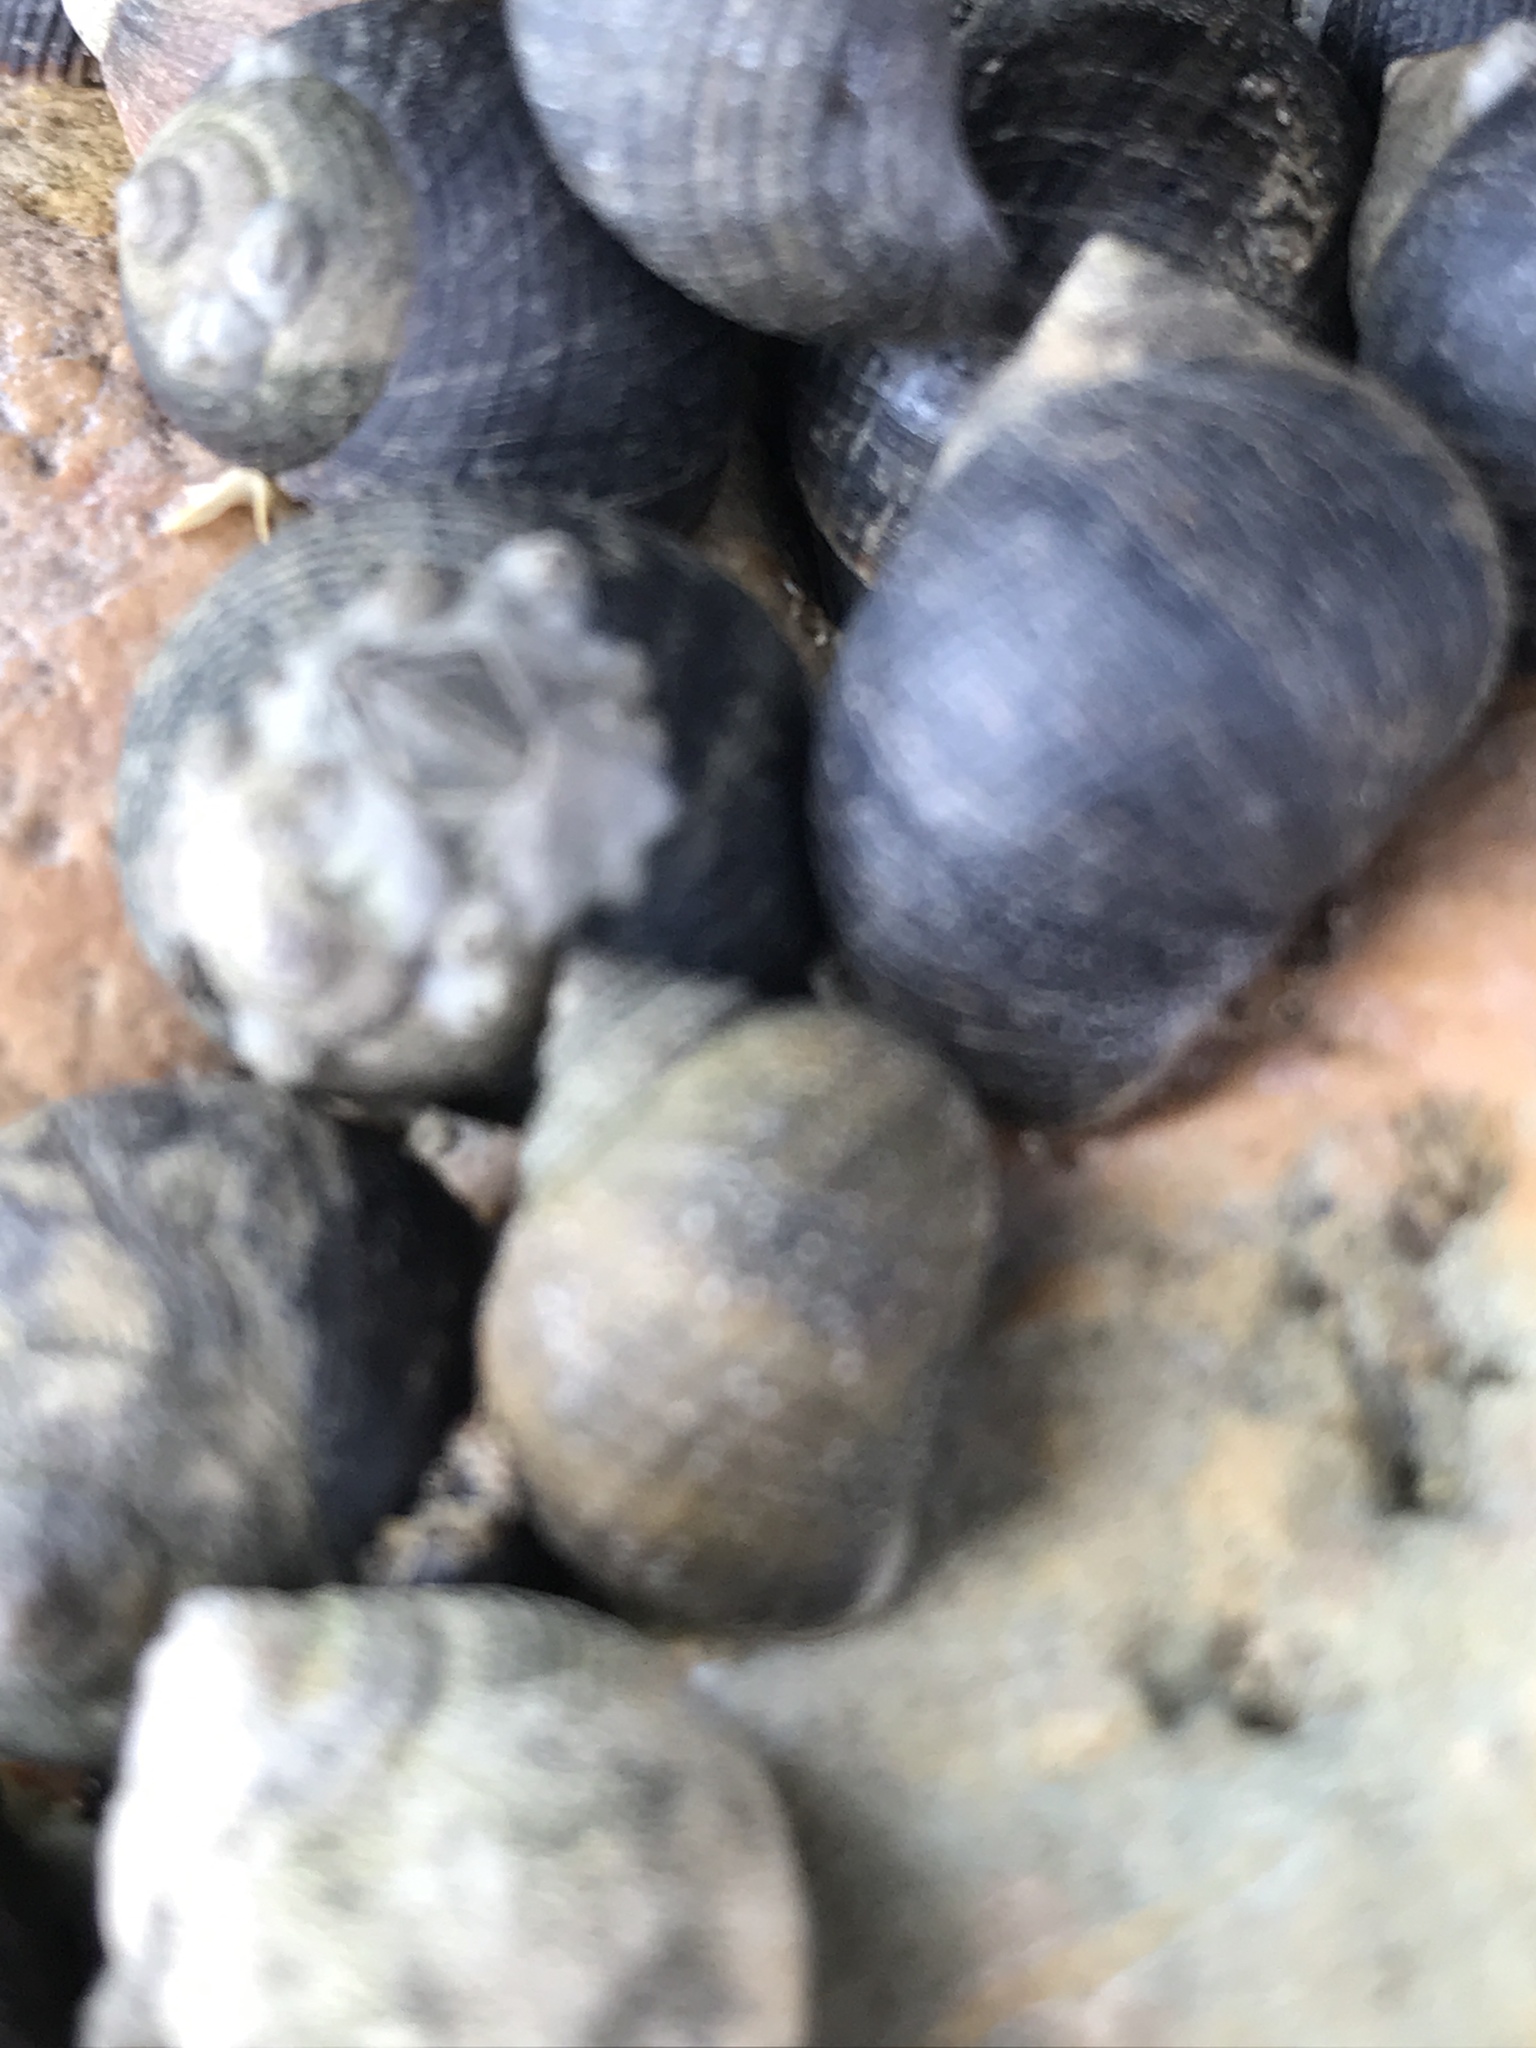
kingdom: Animalia
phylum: Mollusca
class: Gastropoda
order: Littorinimorpha
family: Littorinidae
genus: Littorina
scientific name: Littorina littorea
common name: Common periwinkle
